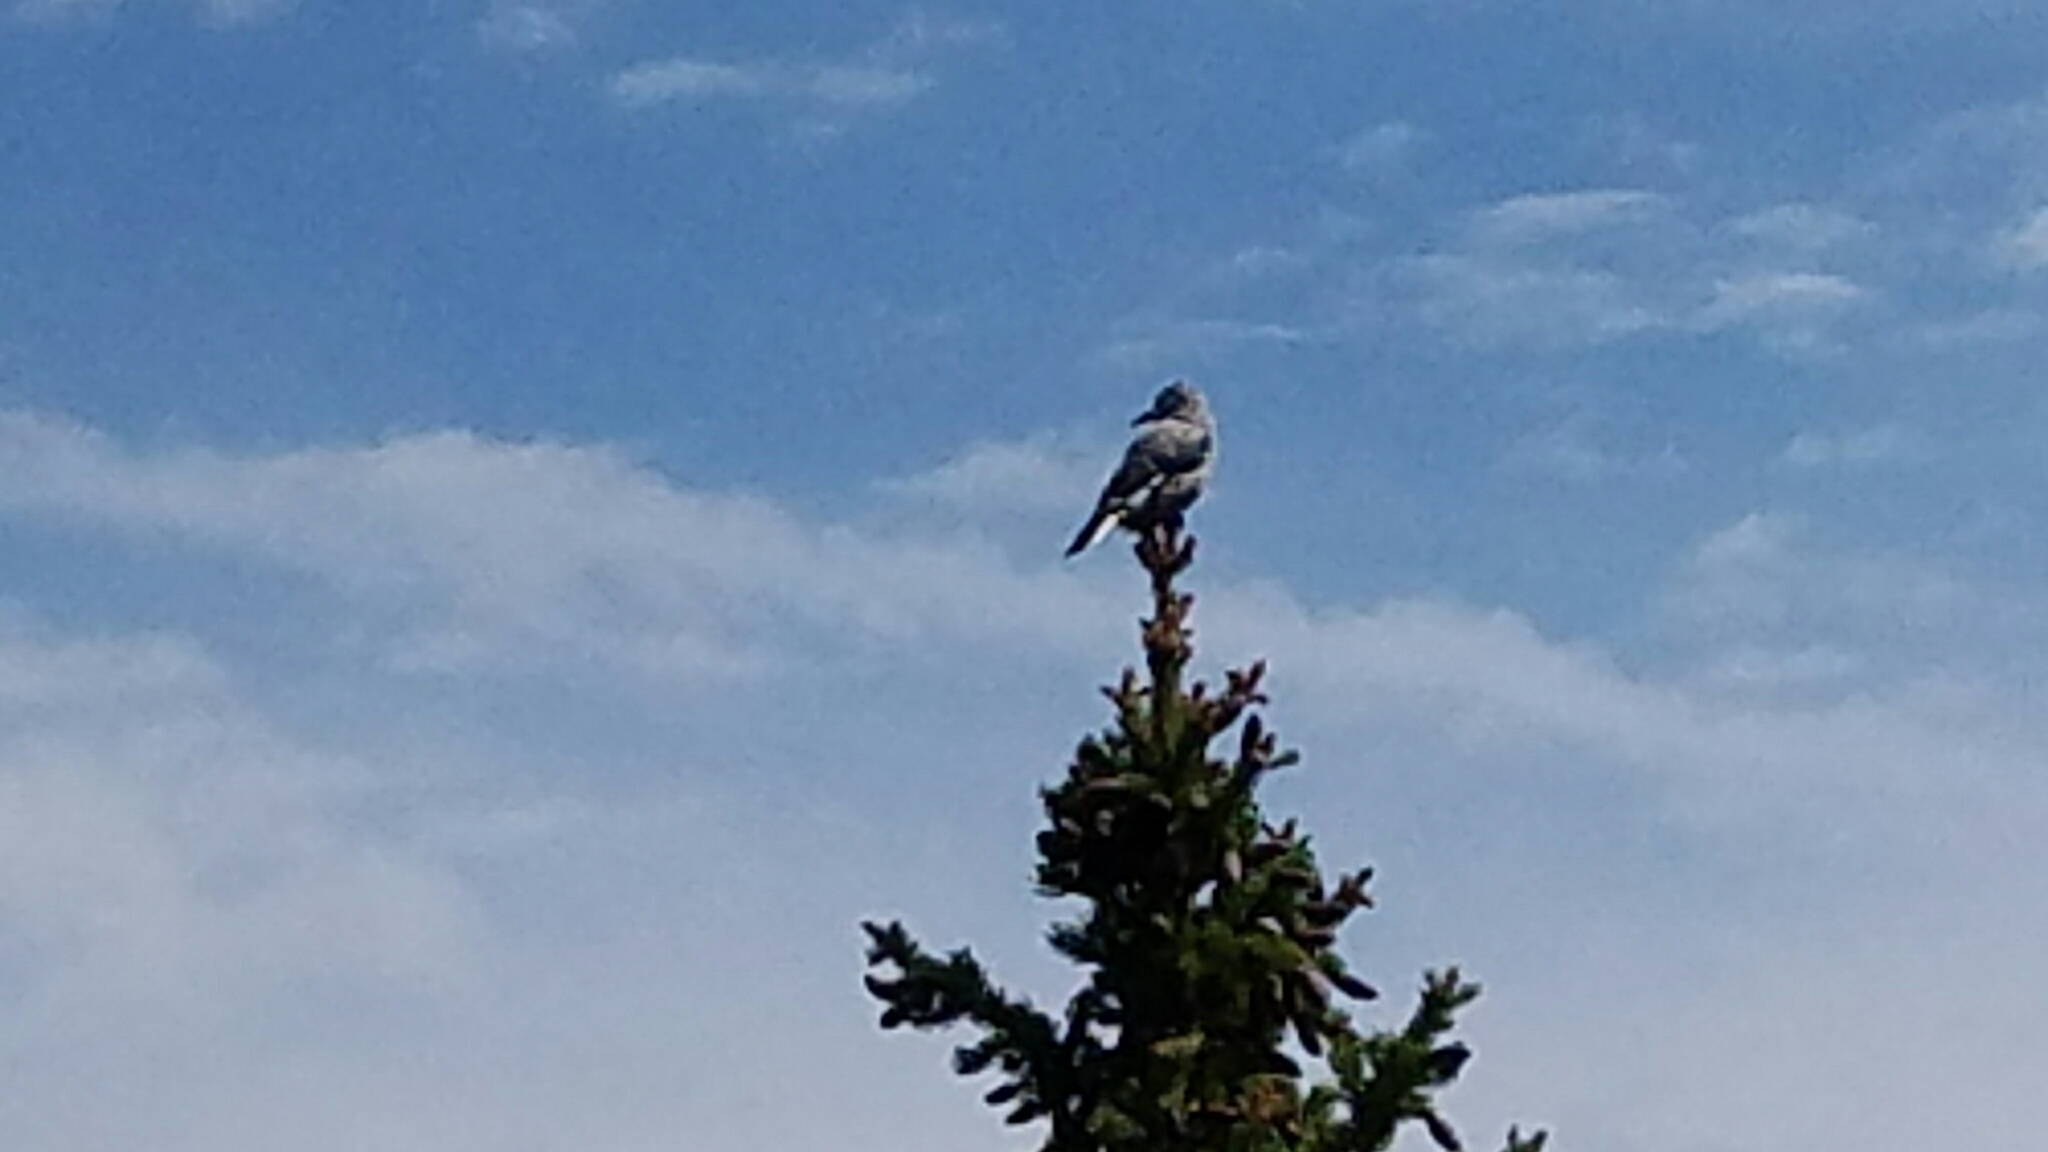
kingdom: Animalia
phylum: Chordata
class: Aves
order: Passeriformes
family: Corvidae
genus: Nucifraga
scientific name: Nucifraga columbiana
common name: Clark's nutcracker
